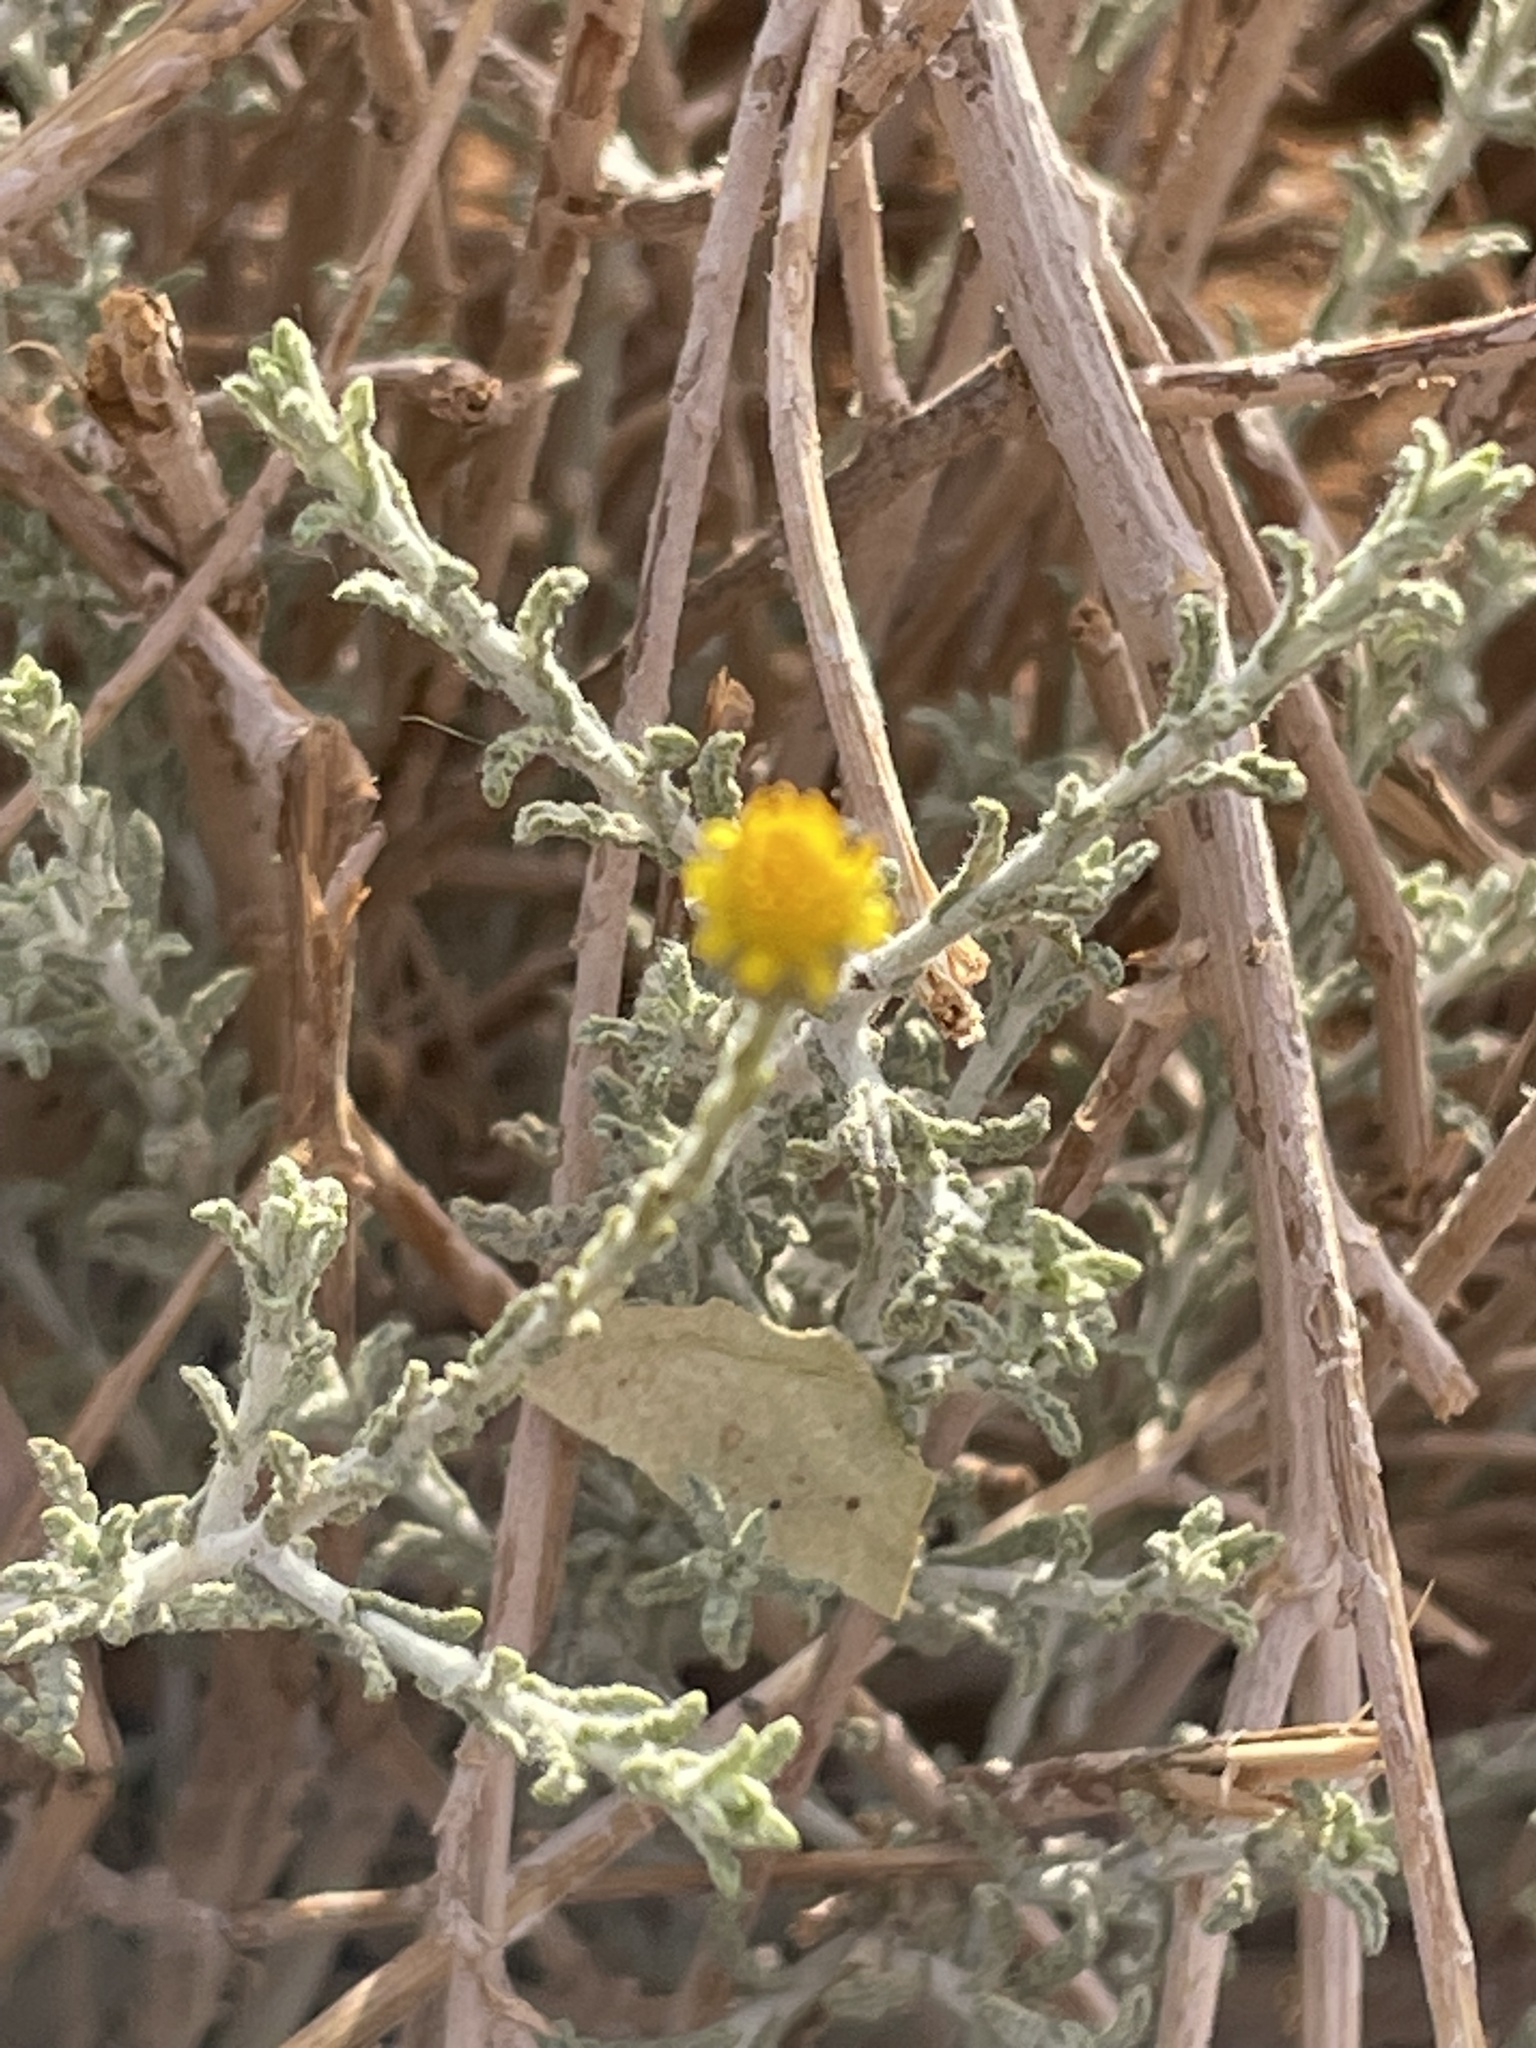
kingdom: Plantae
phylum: Tracheophyta
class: Magnoliopsida
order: Asterales
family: Asteraceae
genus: Pulicaria
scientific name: Pulicaria undulata
